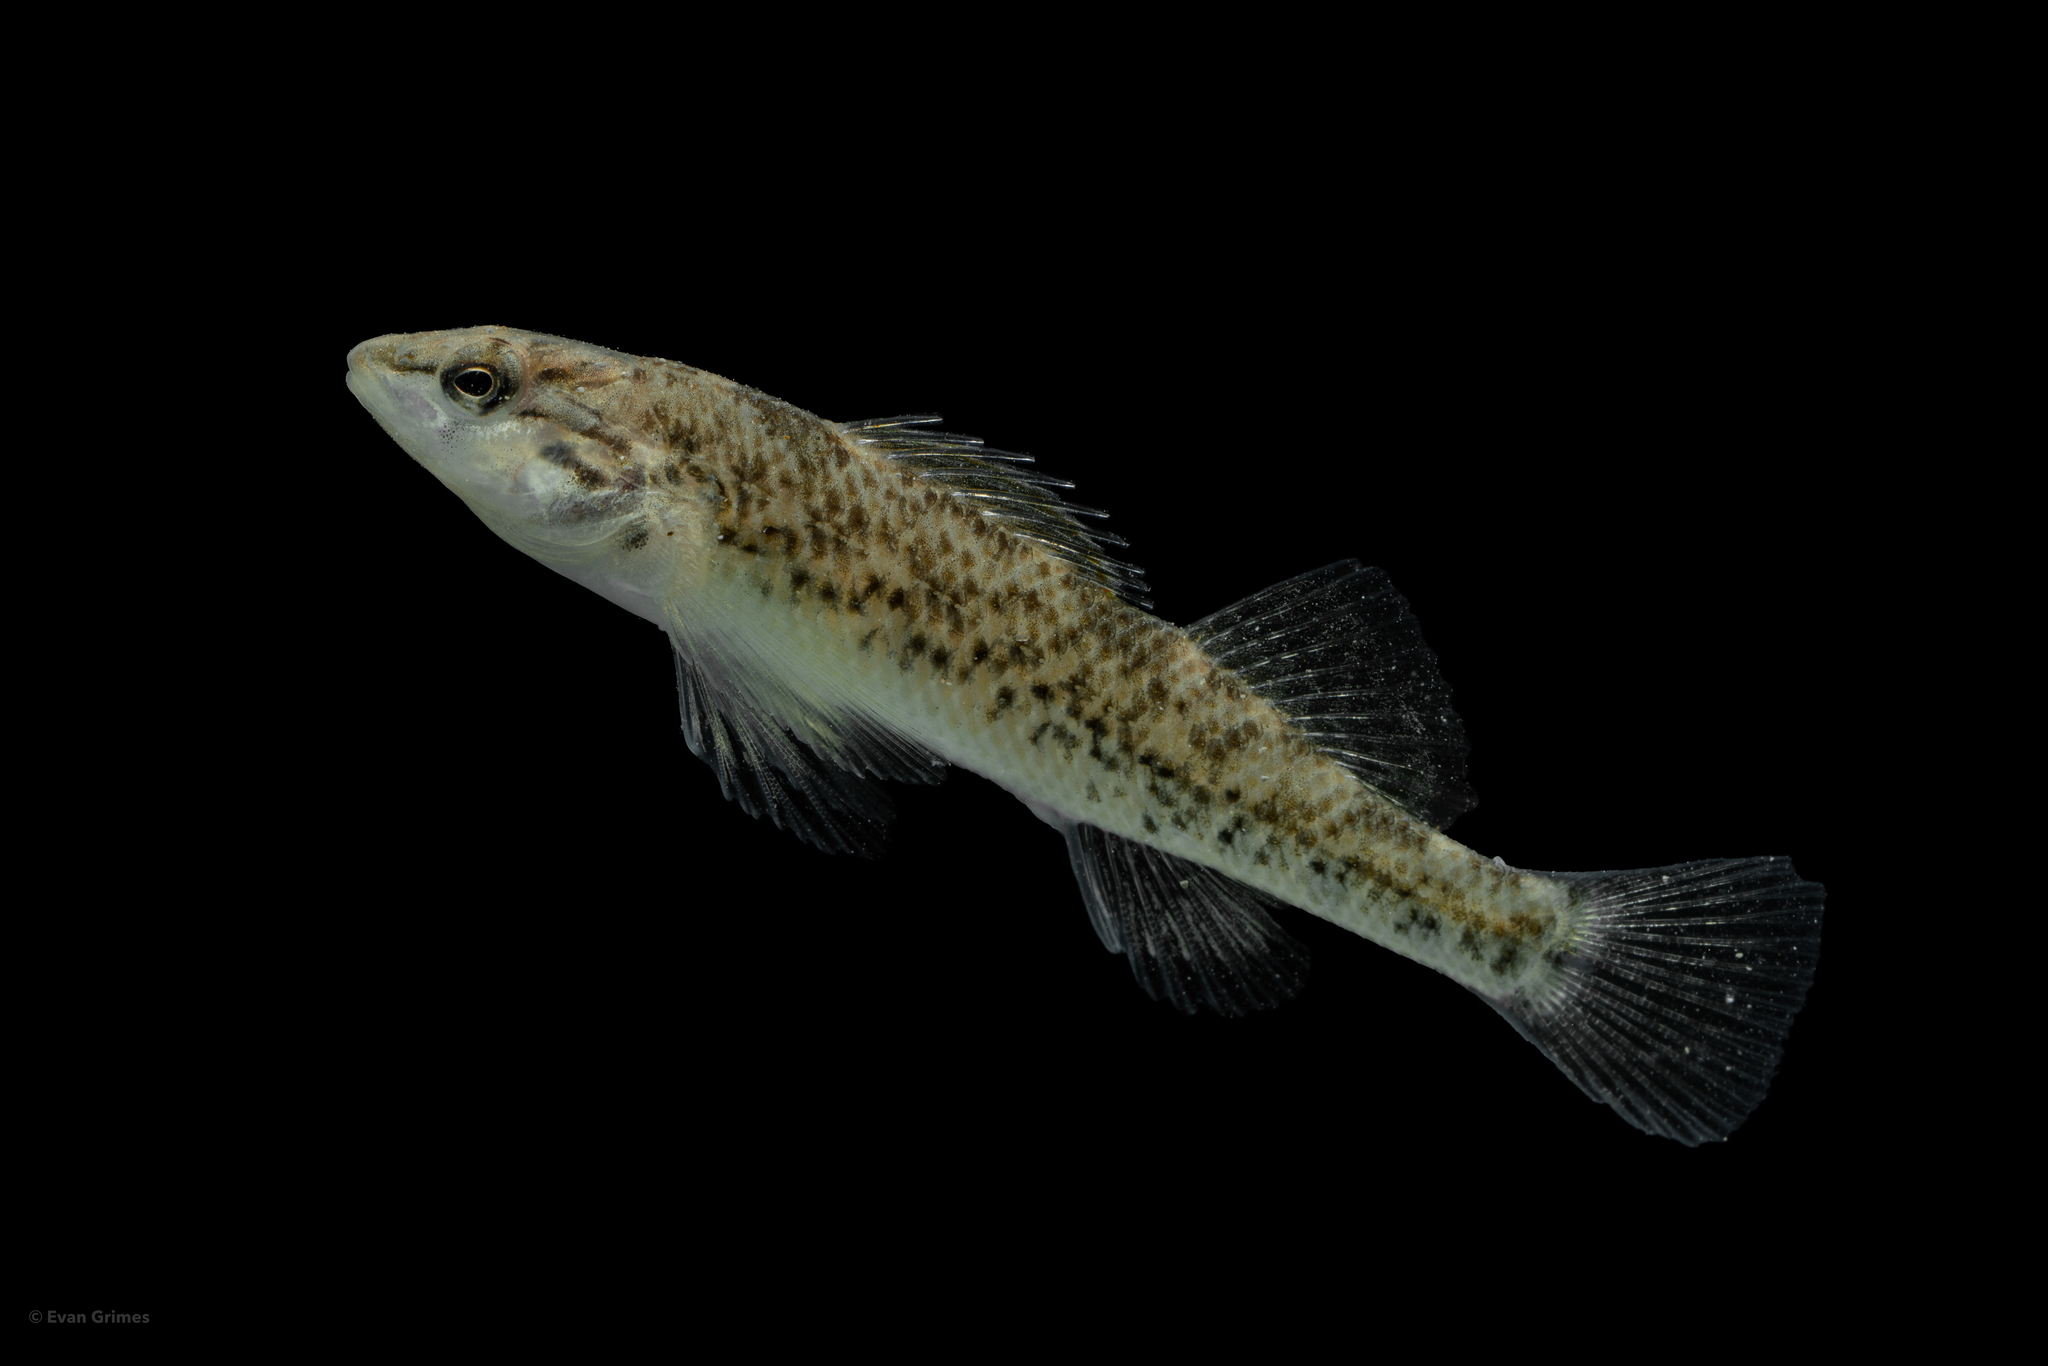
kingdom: Animalia
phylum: Chordata
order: Perciformes
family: Percidae
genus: Etheostoma
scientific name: Etheostoma caeruleum
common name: Rainbow darter
